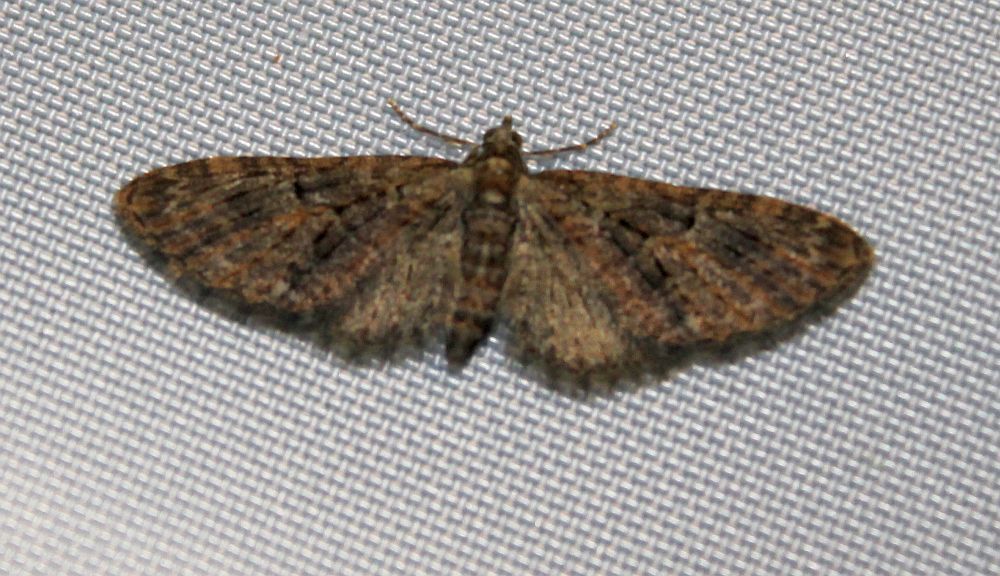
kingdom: Animalia
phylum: Arthropoda
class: Insecta
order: Lepidoptera
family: Geometridae
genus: Eupithecia
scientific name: Eupithecia abbreviata
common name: Brindled pug
